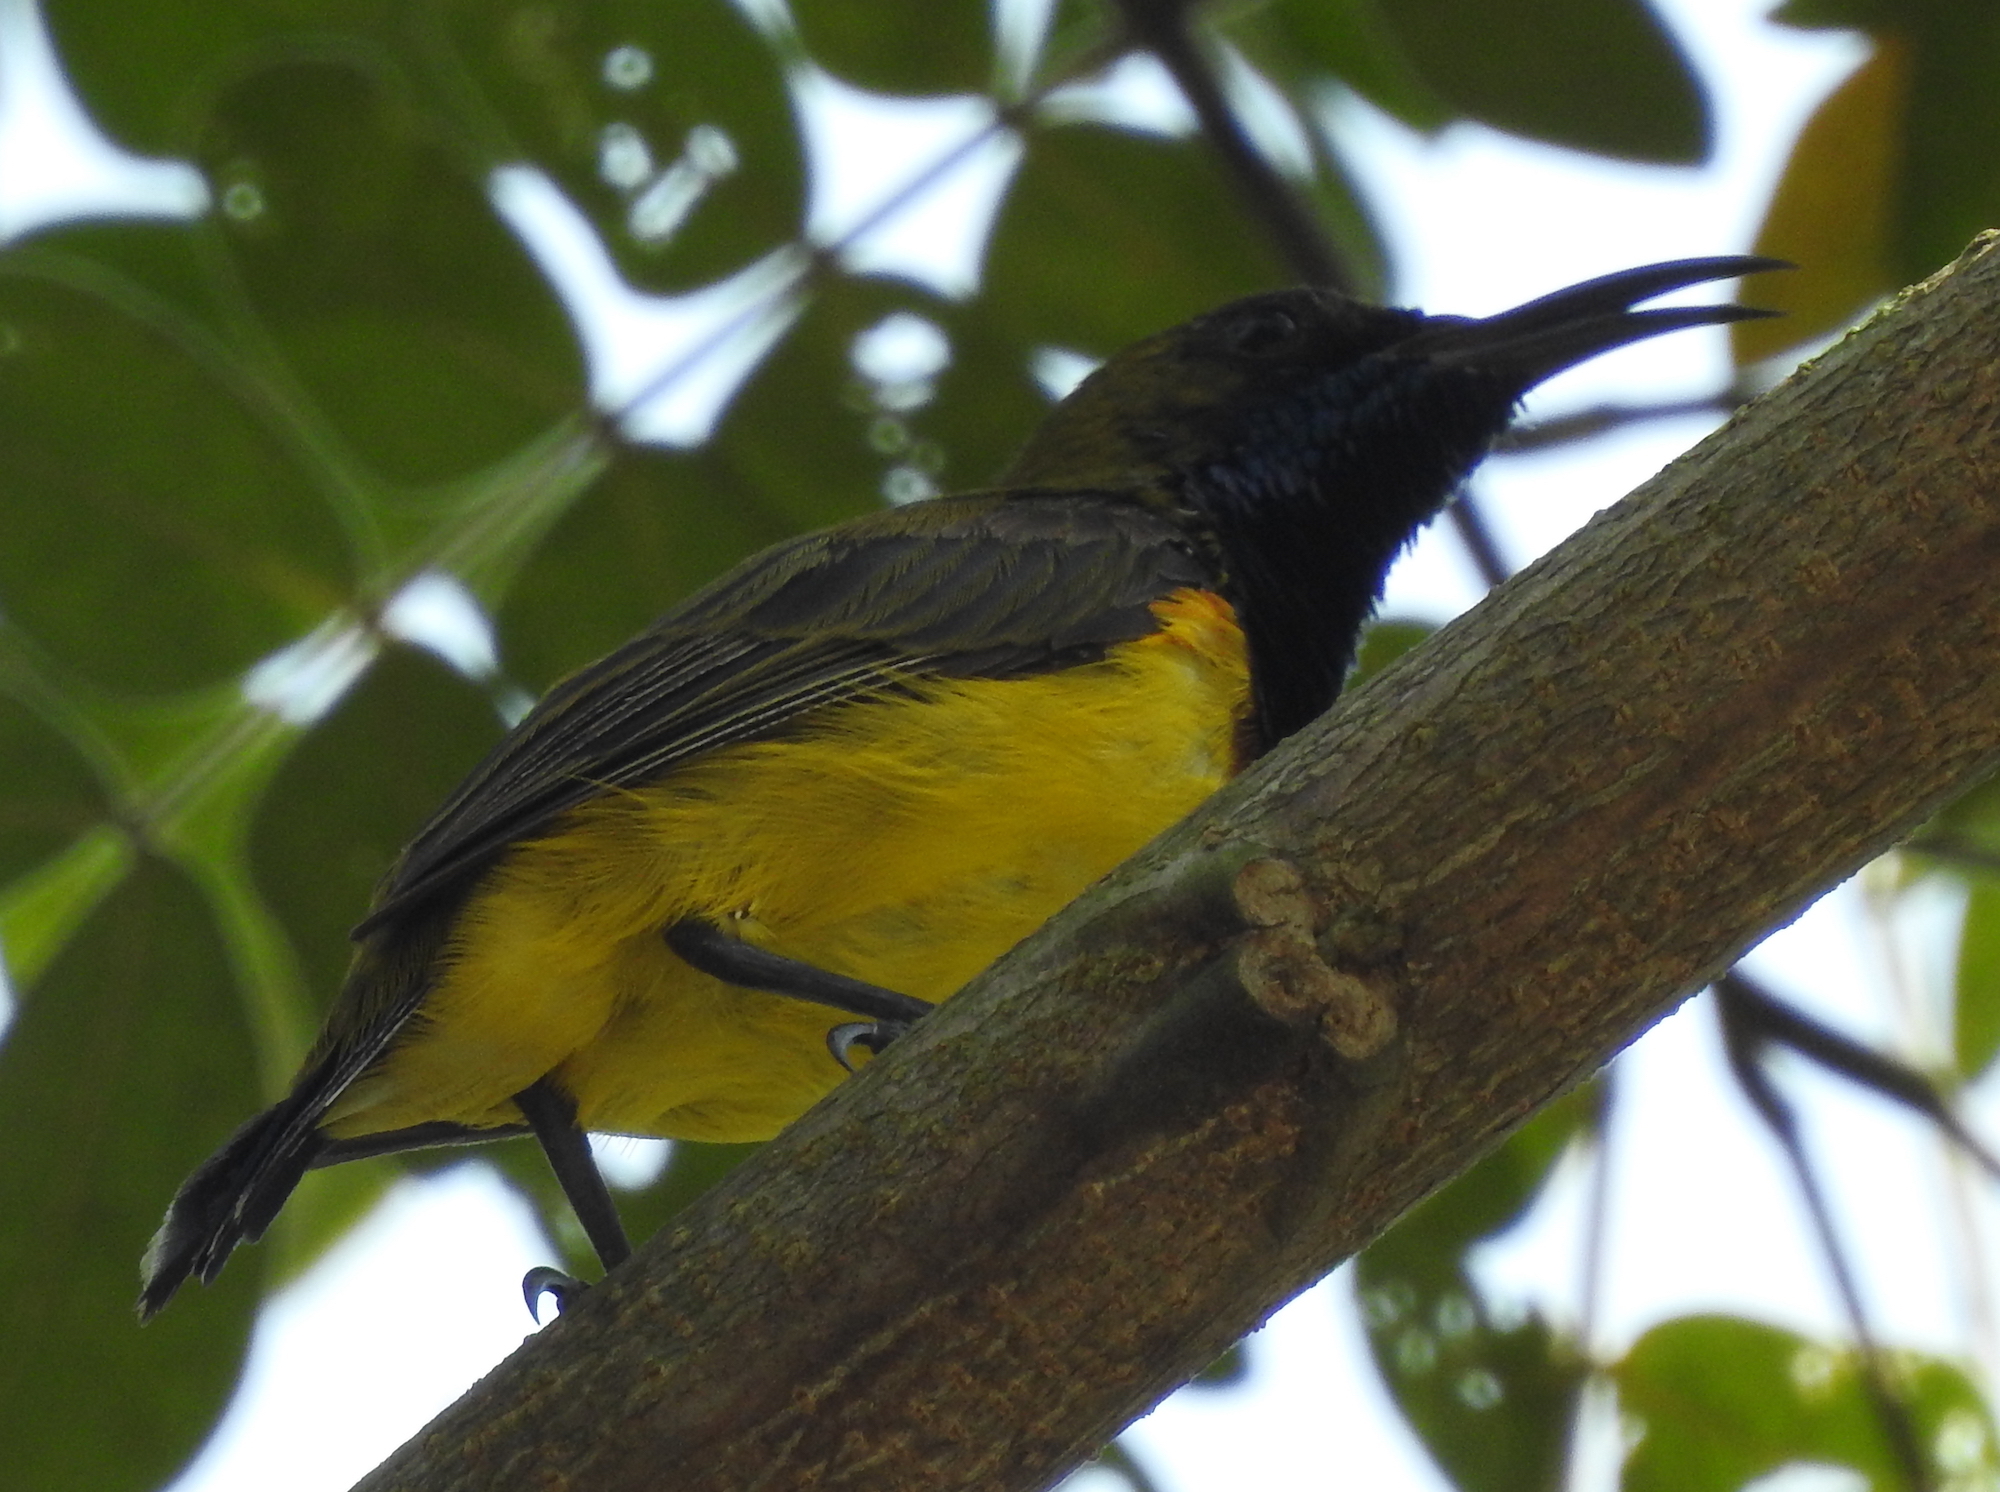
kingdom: Animalia
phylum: Chordata
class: Aves
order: Passeriformes
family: Nectariniidae
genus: Cinnyris
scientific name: Cinnyris
